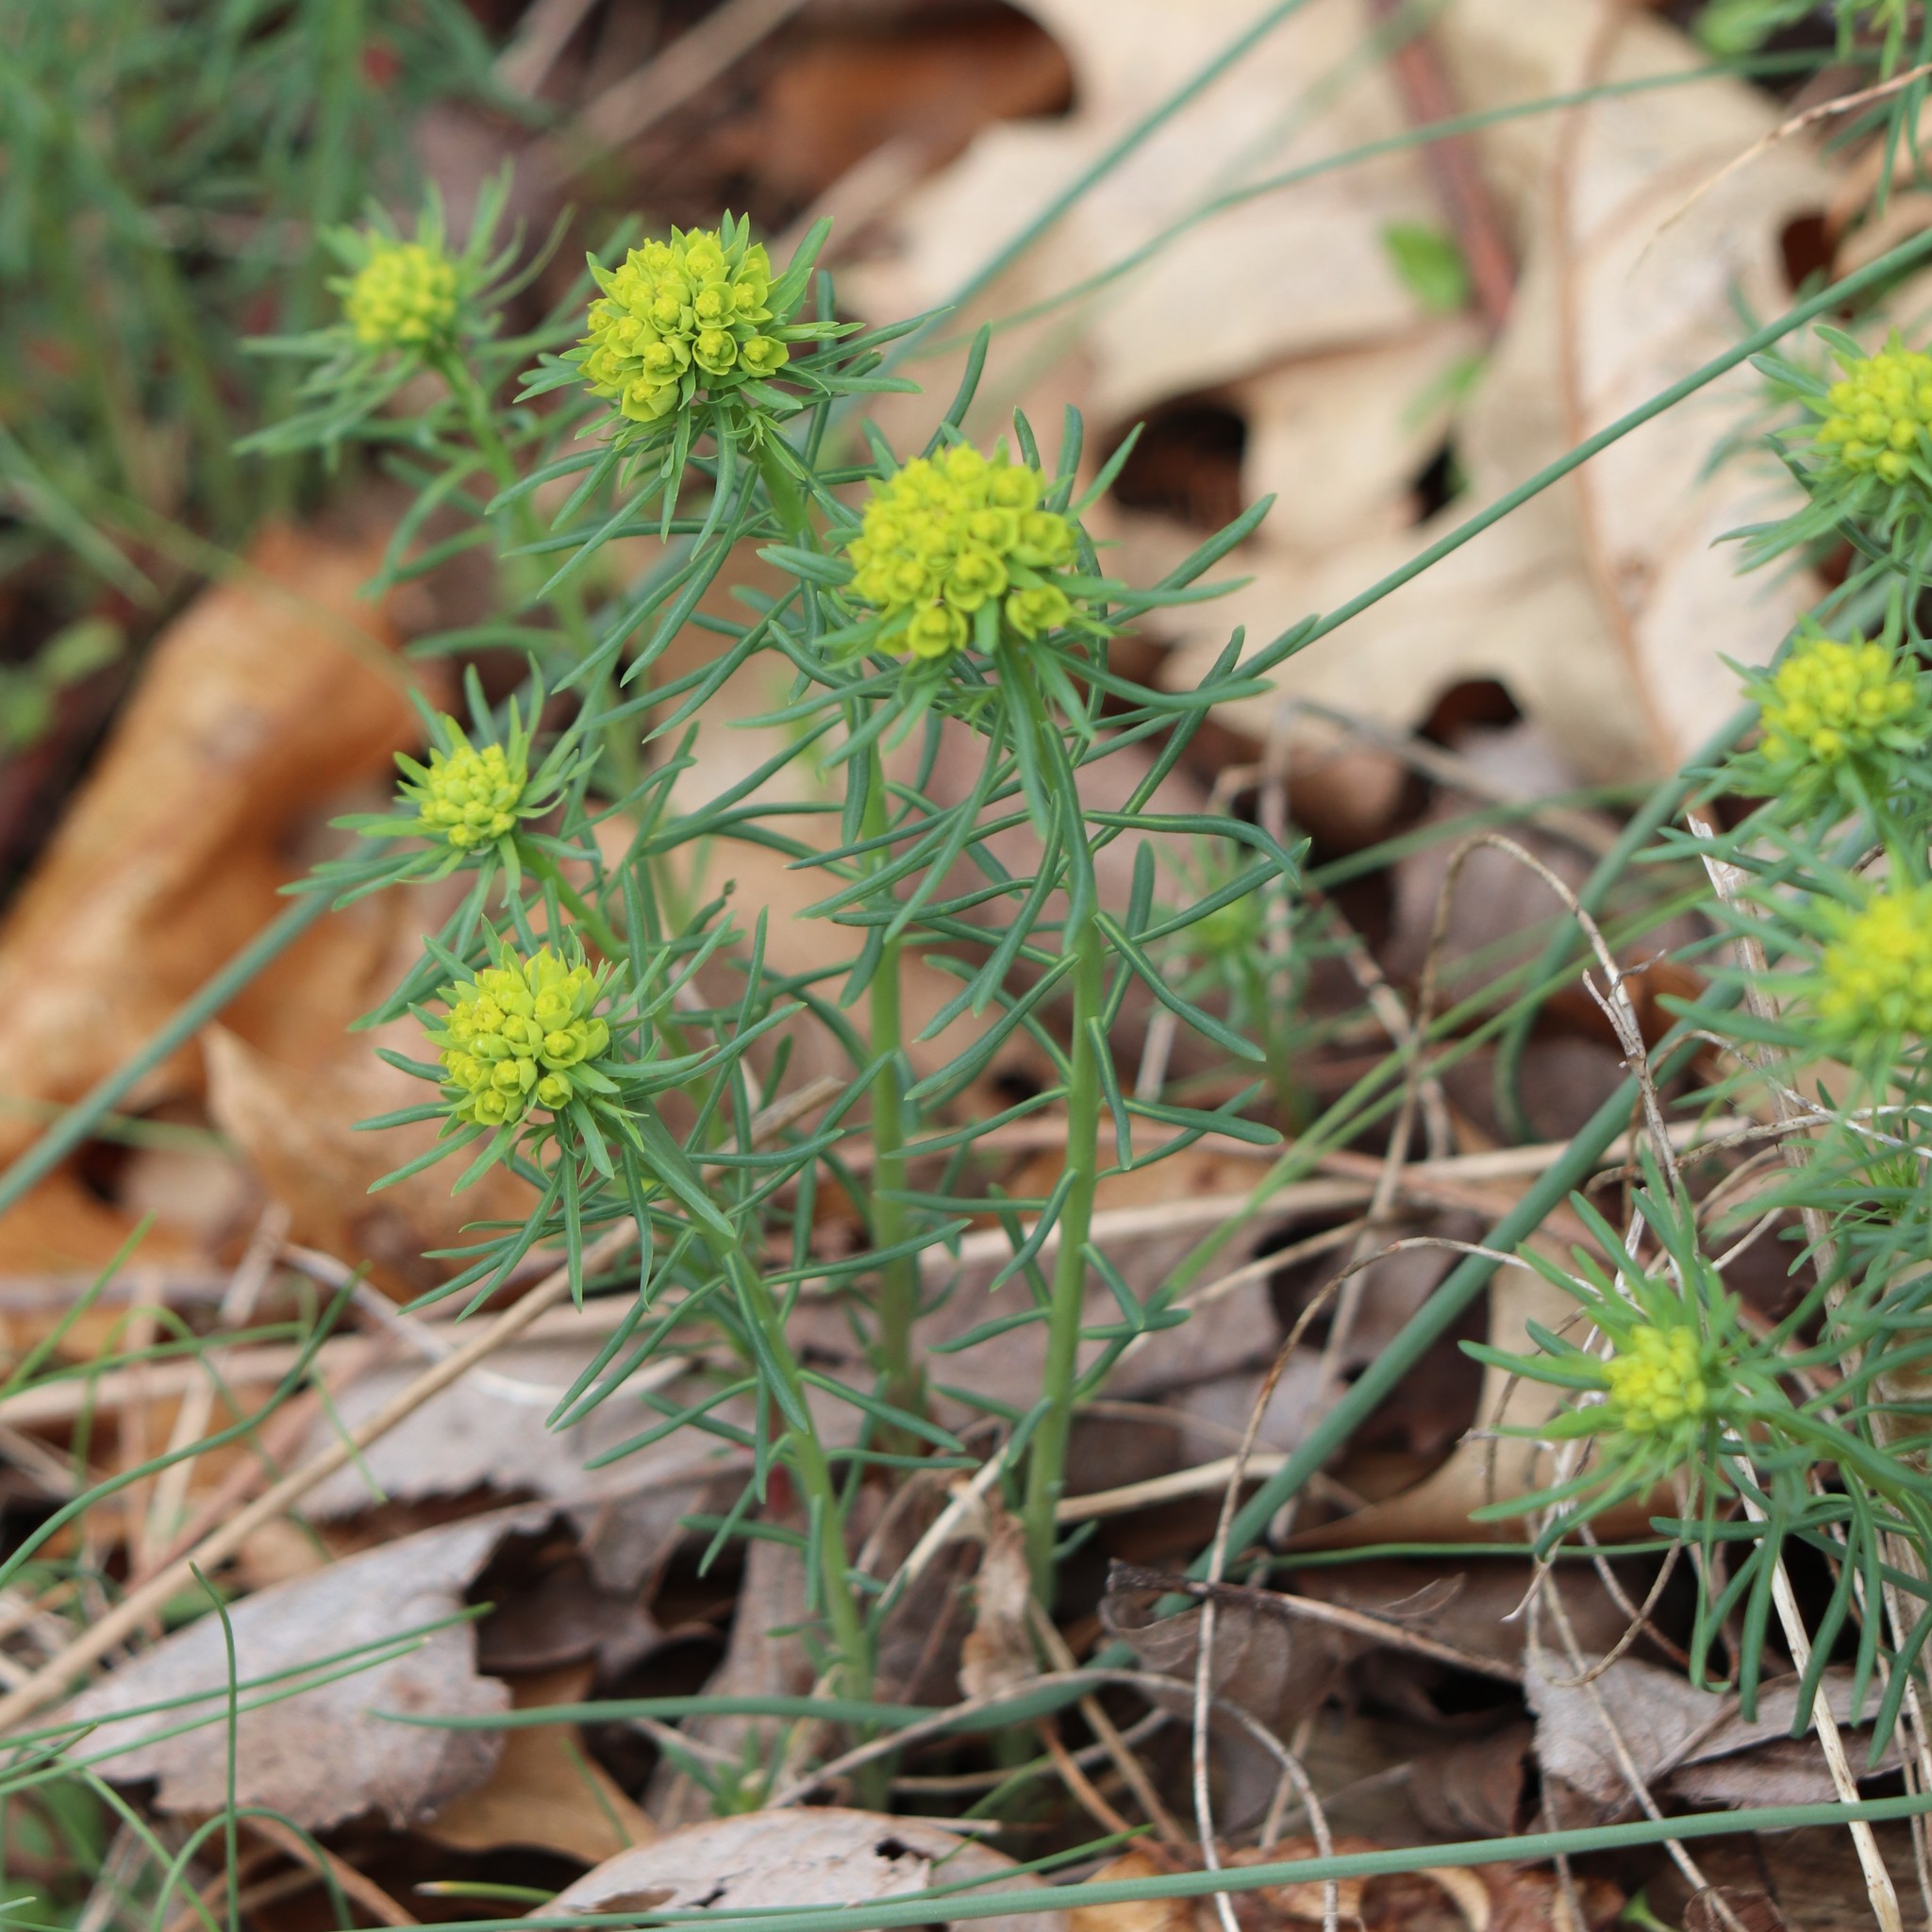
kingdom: Plantae
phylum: Tracheophyta
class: Magnoliopsida
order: Malpighiales
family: Euphorbiaceae
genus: Euphorbia
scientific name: Euphorbia cyparissias
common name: Cypress spurge
